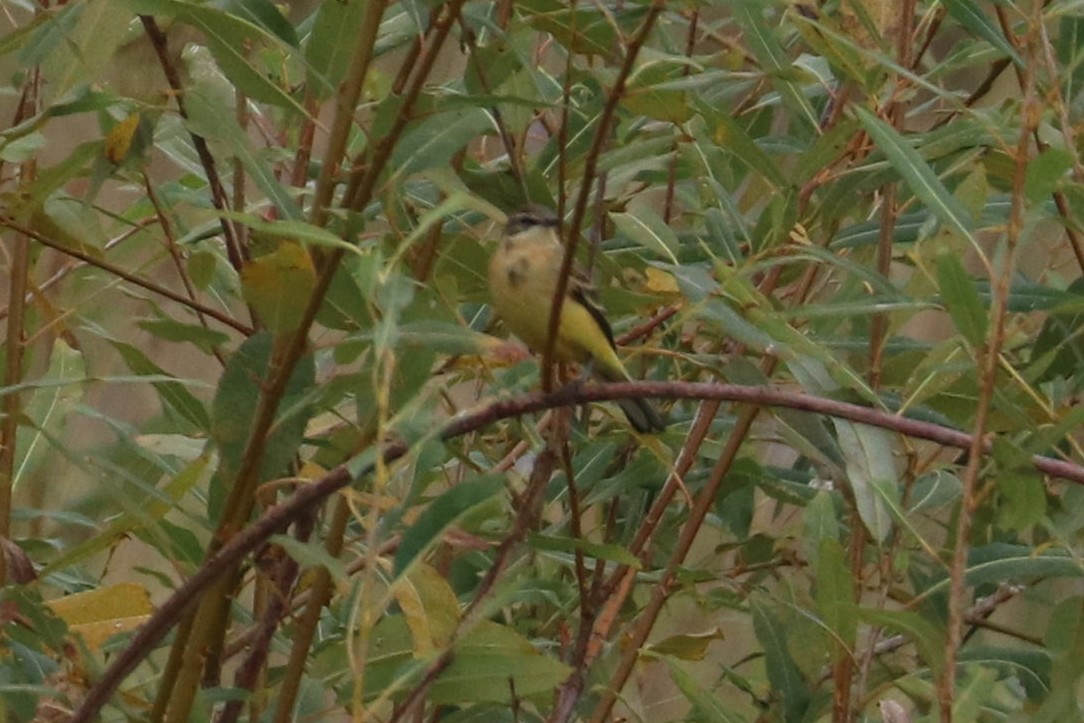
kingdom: Animalia
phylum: Chordata
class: Aves
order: Passeriformes
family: Motacillidae
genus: Motacilla
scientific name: Motacilla flava
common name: Western yellow wagtail
